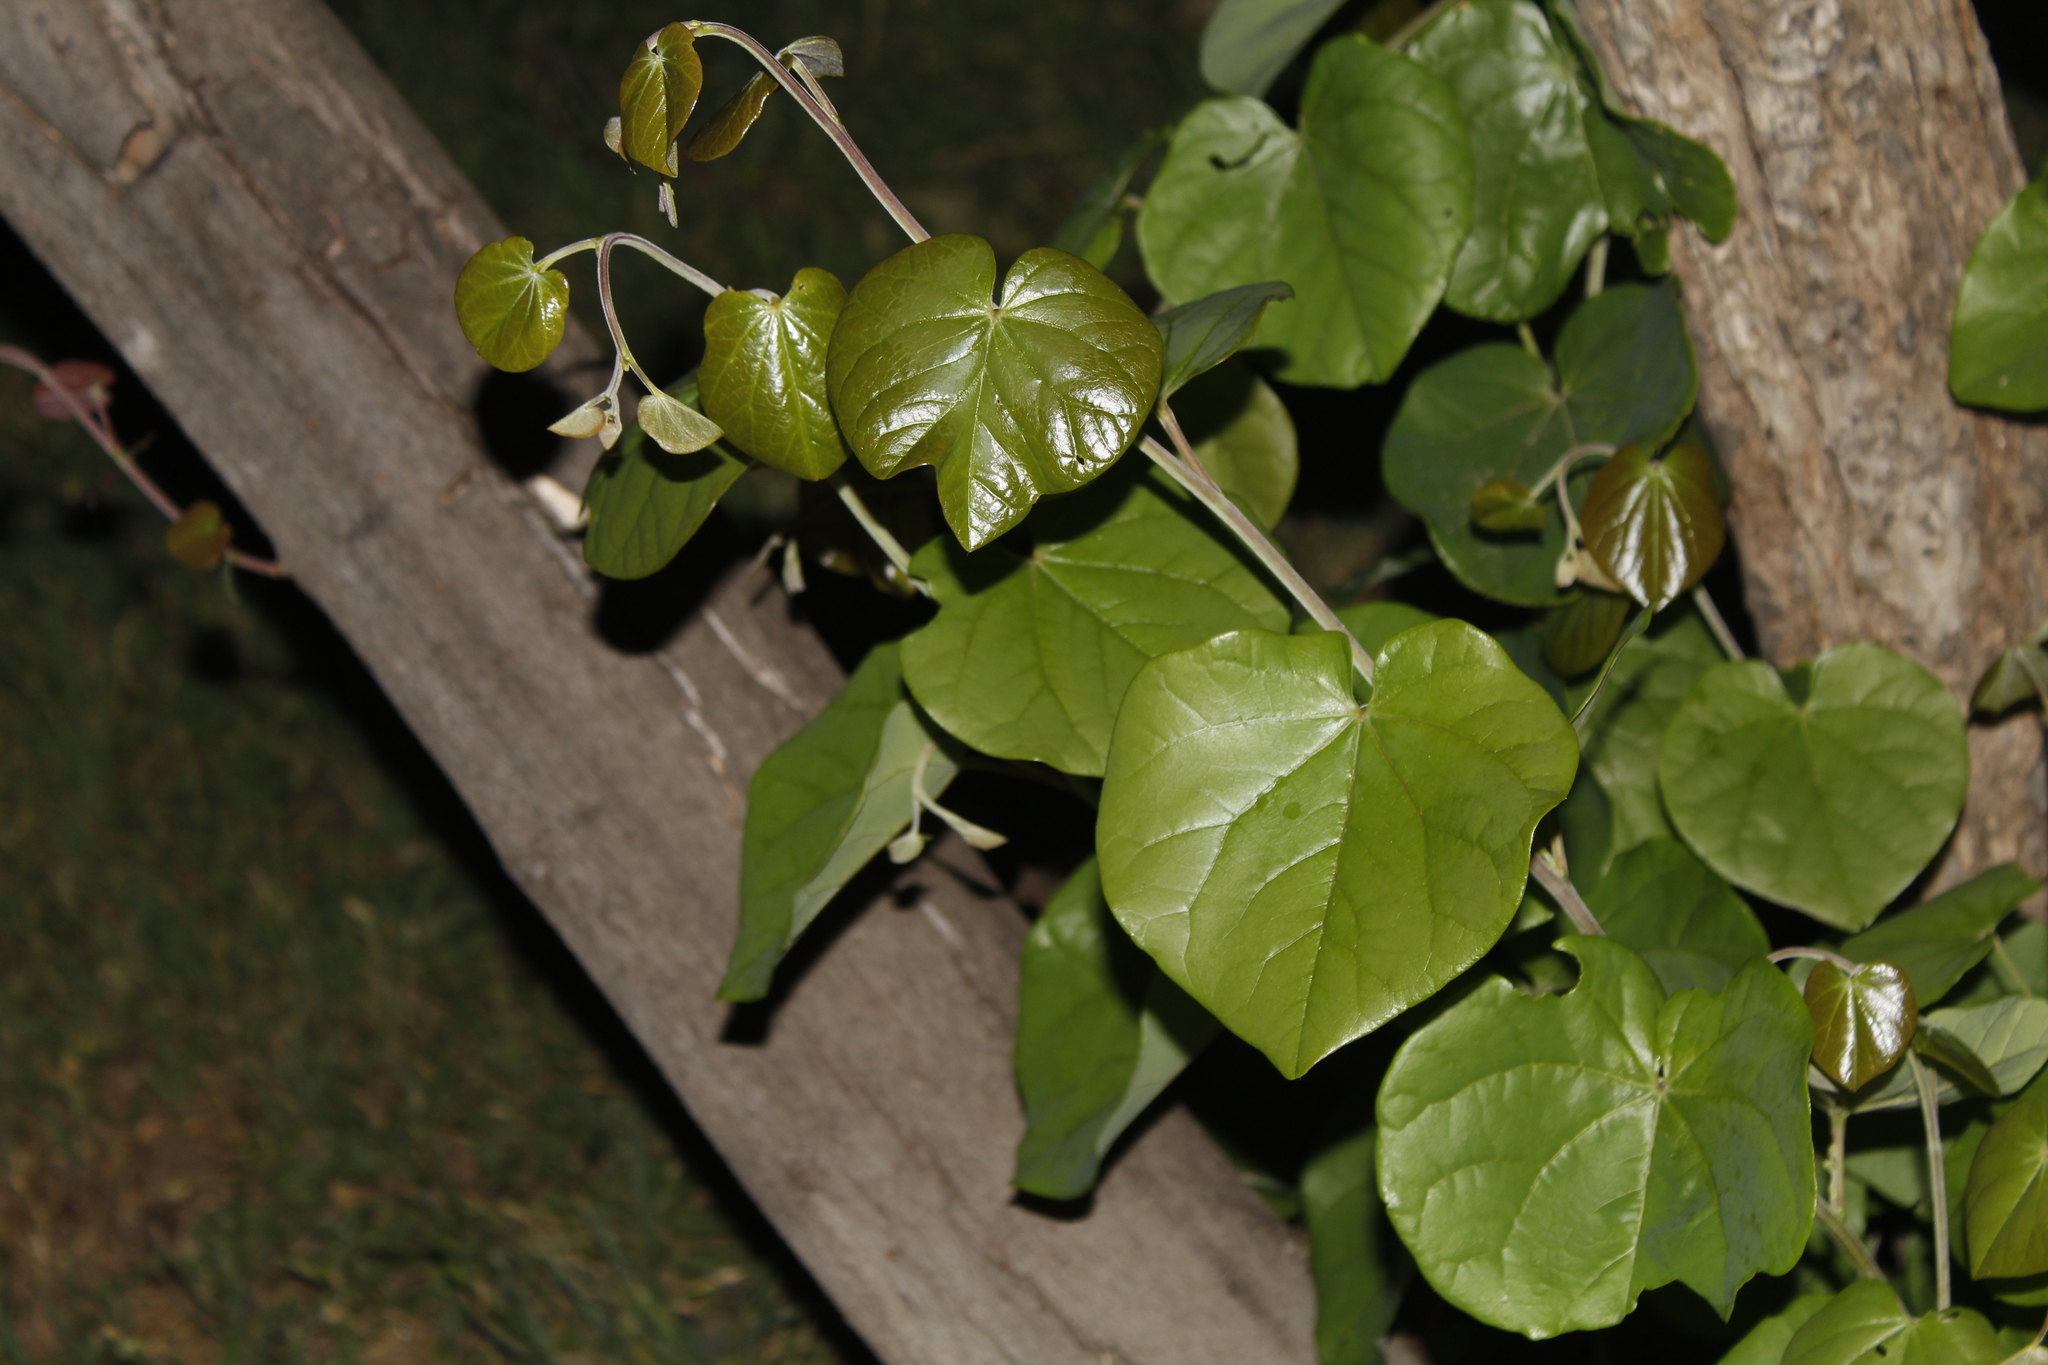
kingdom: Plantae
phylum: Tracheophyta
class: Magnoliopsida
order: Fabales
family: Fabaceae
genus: Cercis
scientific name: Cercis canadensis
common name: Eastern redbud
